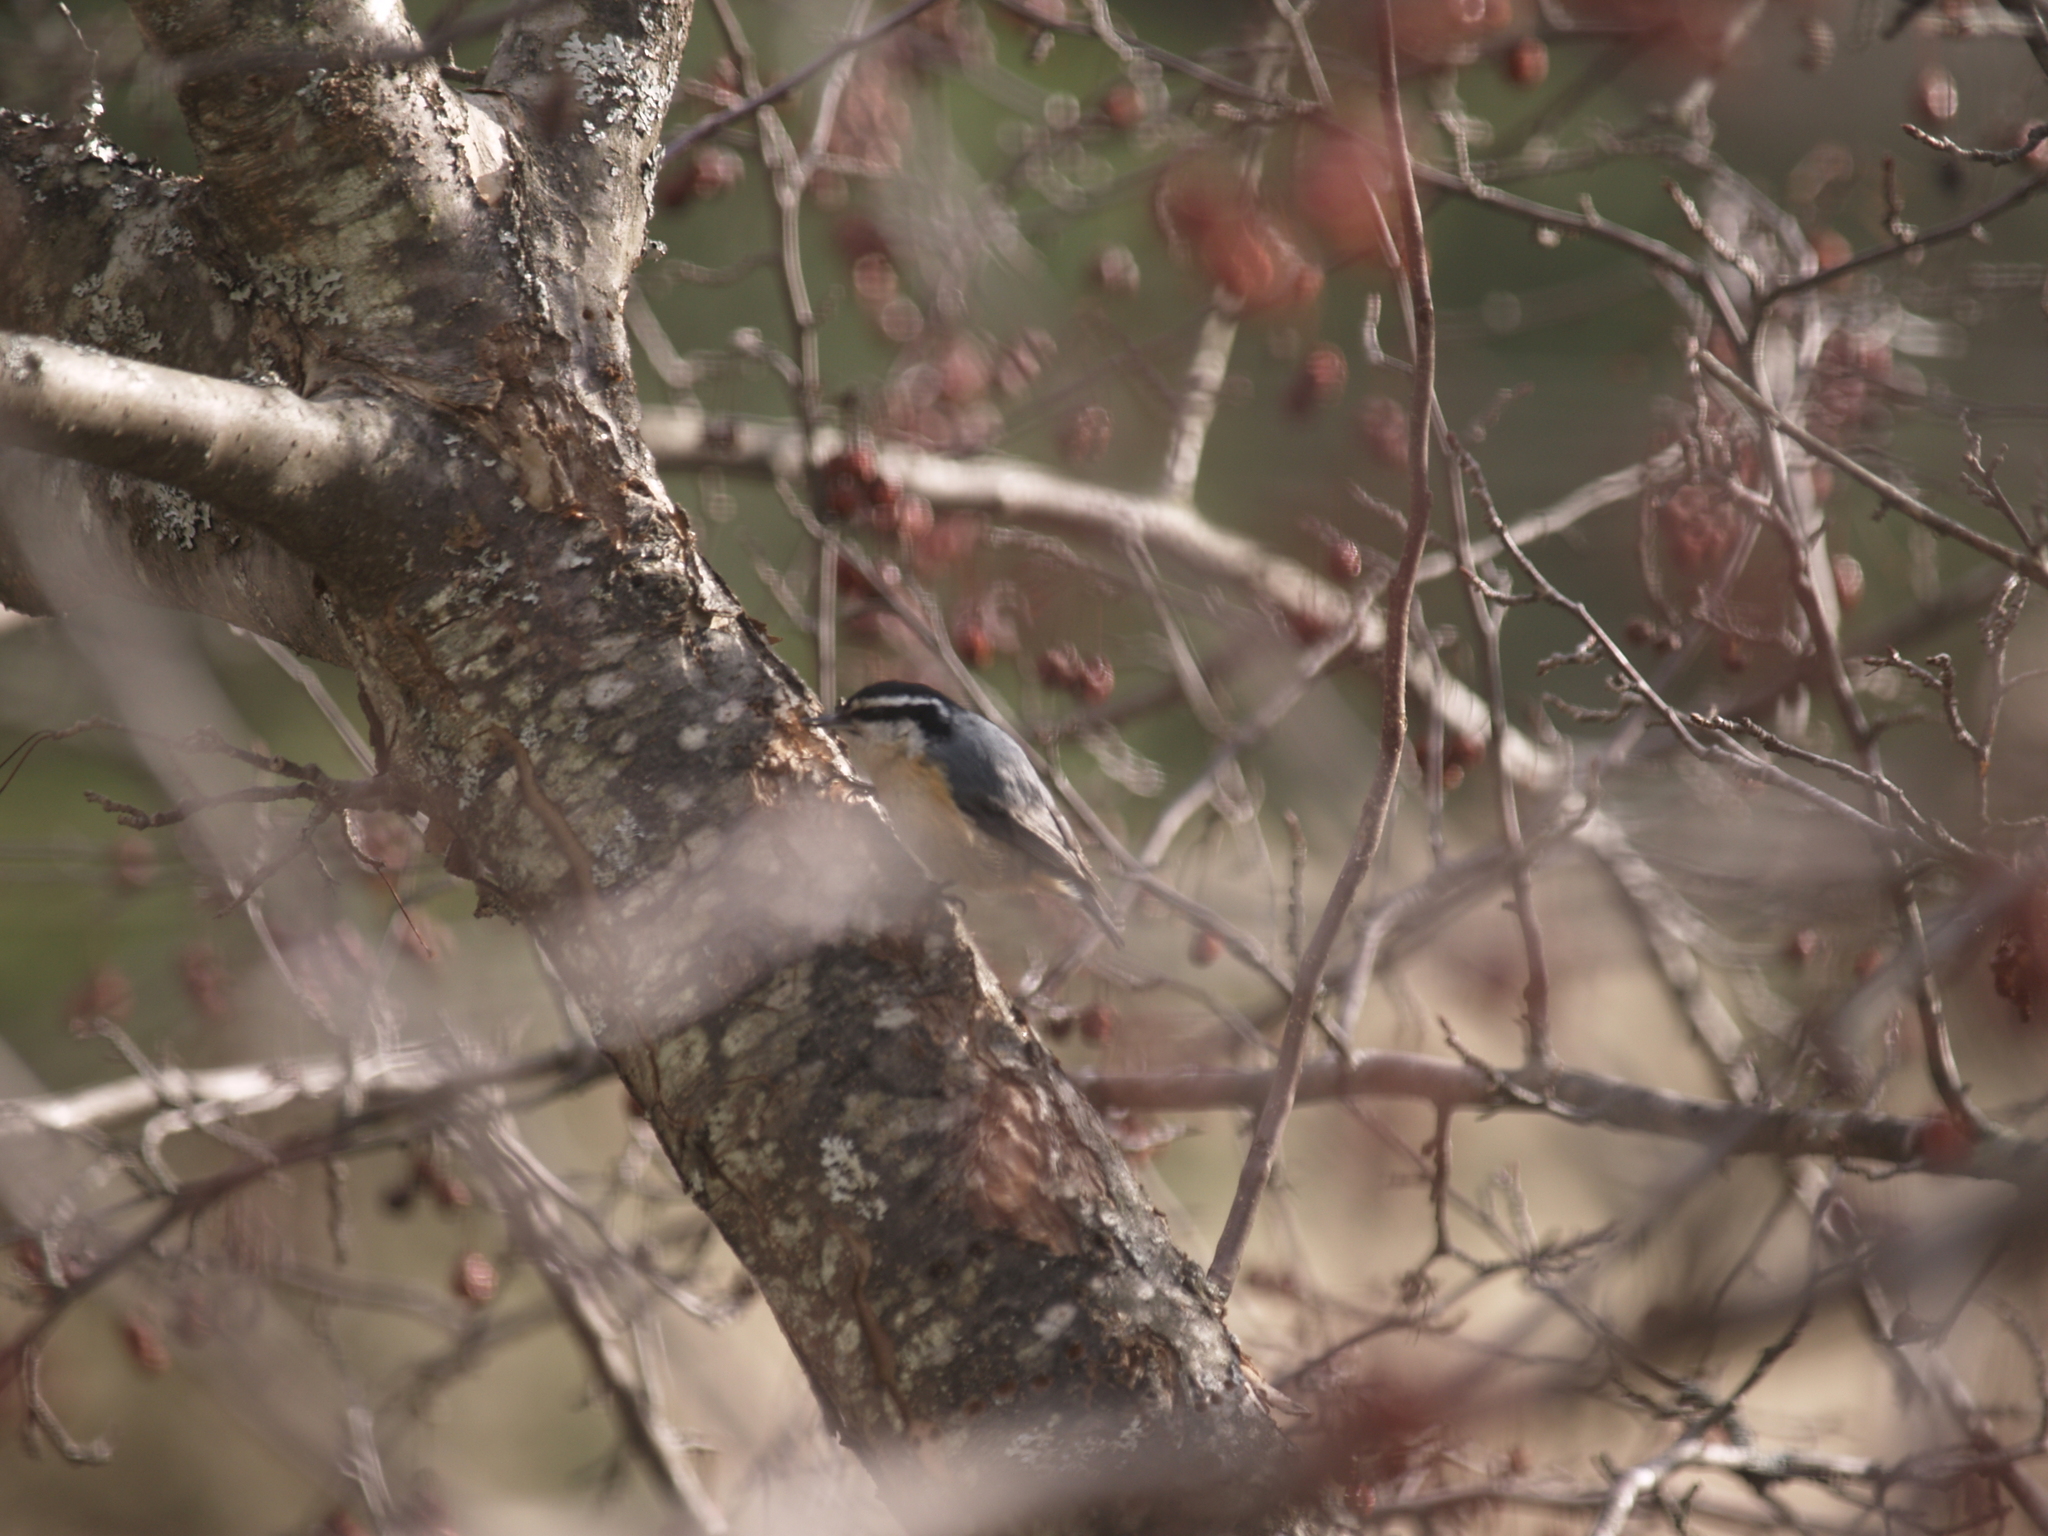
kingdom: Animalia
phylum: Chordata
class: Aves
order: Passeriformes
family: Sittidae
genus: Sitta
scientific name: Sitta canadensis
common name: Red-breasted nuthatch
